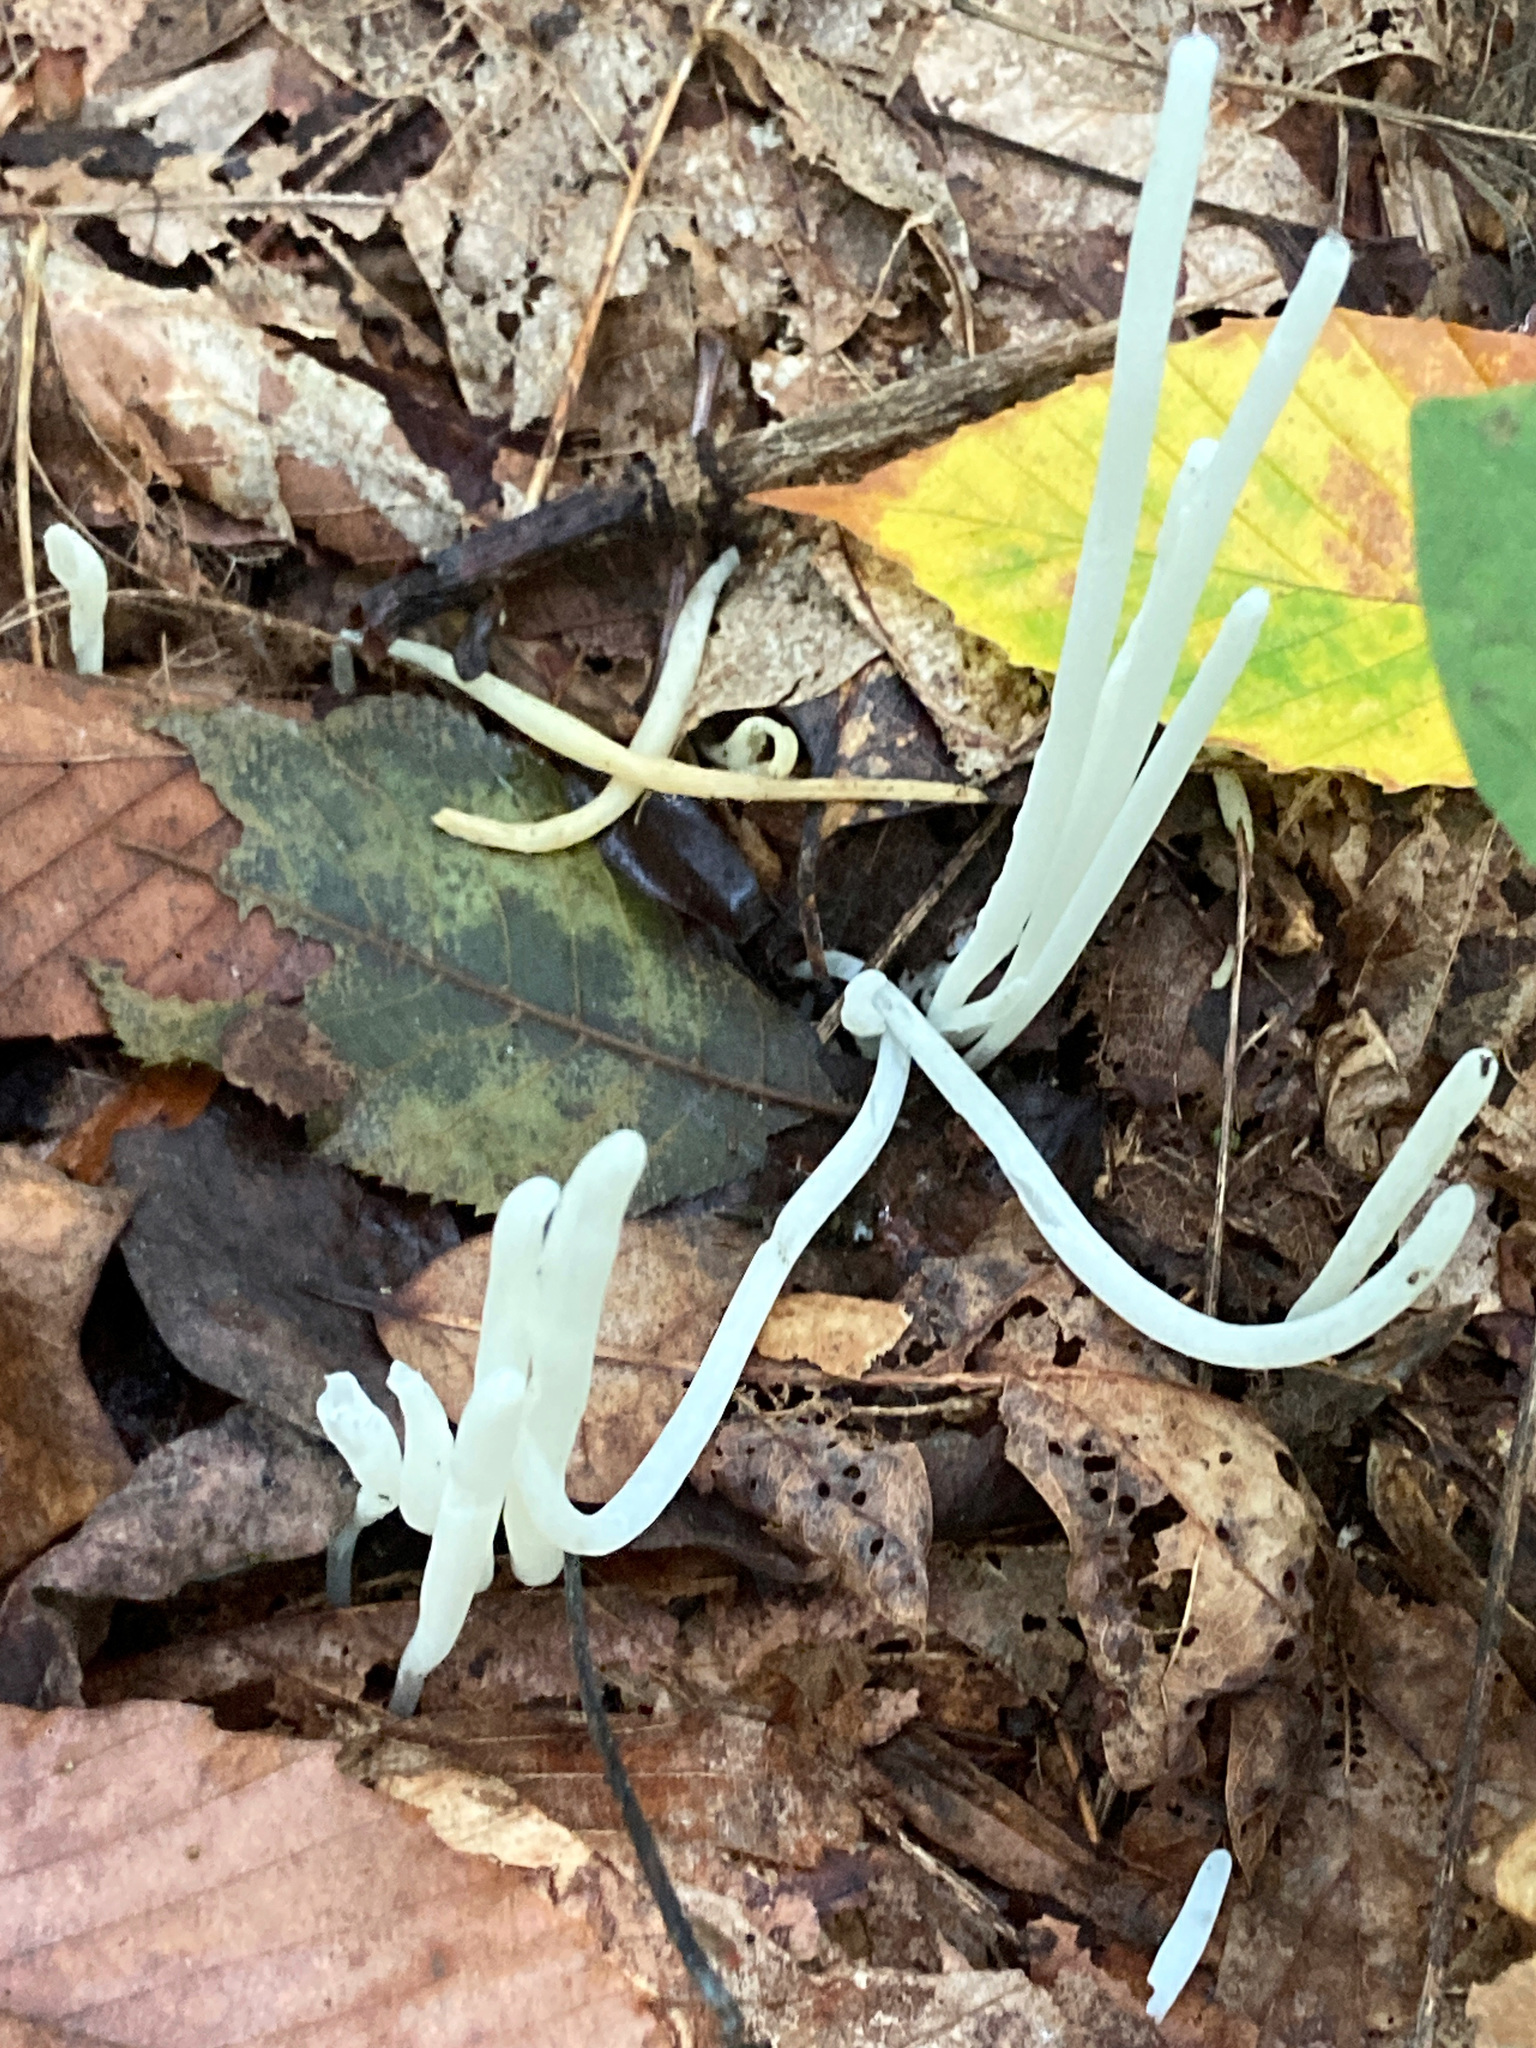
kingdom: Fungi
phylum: Basidiomycota
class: Agaricomycetes
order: Agaricales
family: Clavariaceae
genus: Clavaria
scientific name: Clavaria fragilis
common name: White spindles
